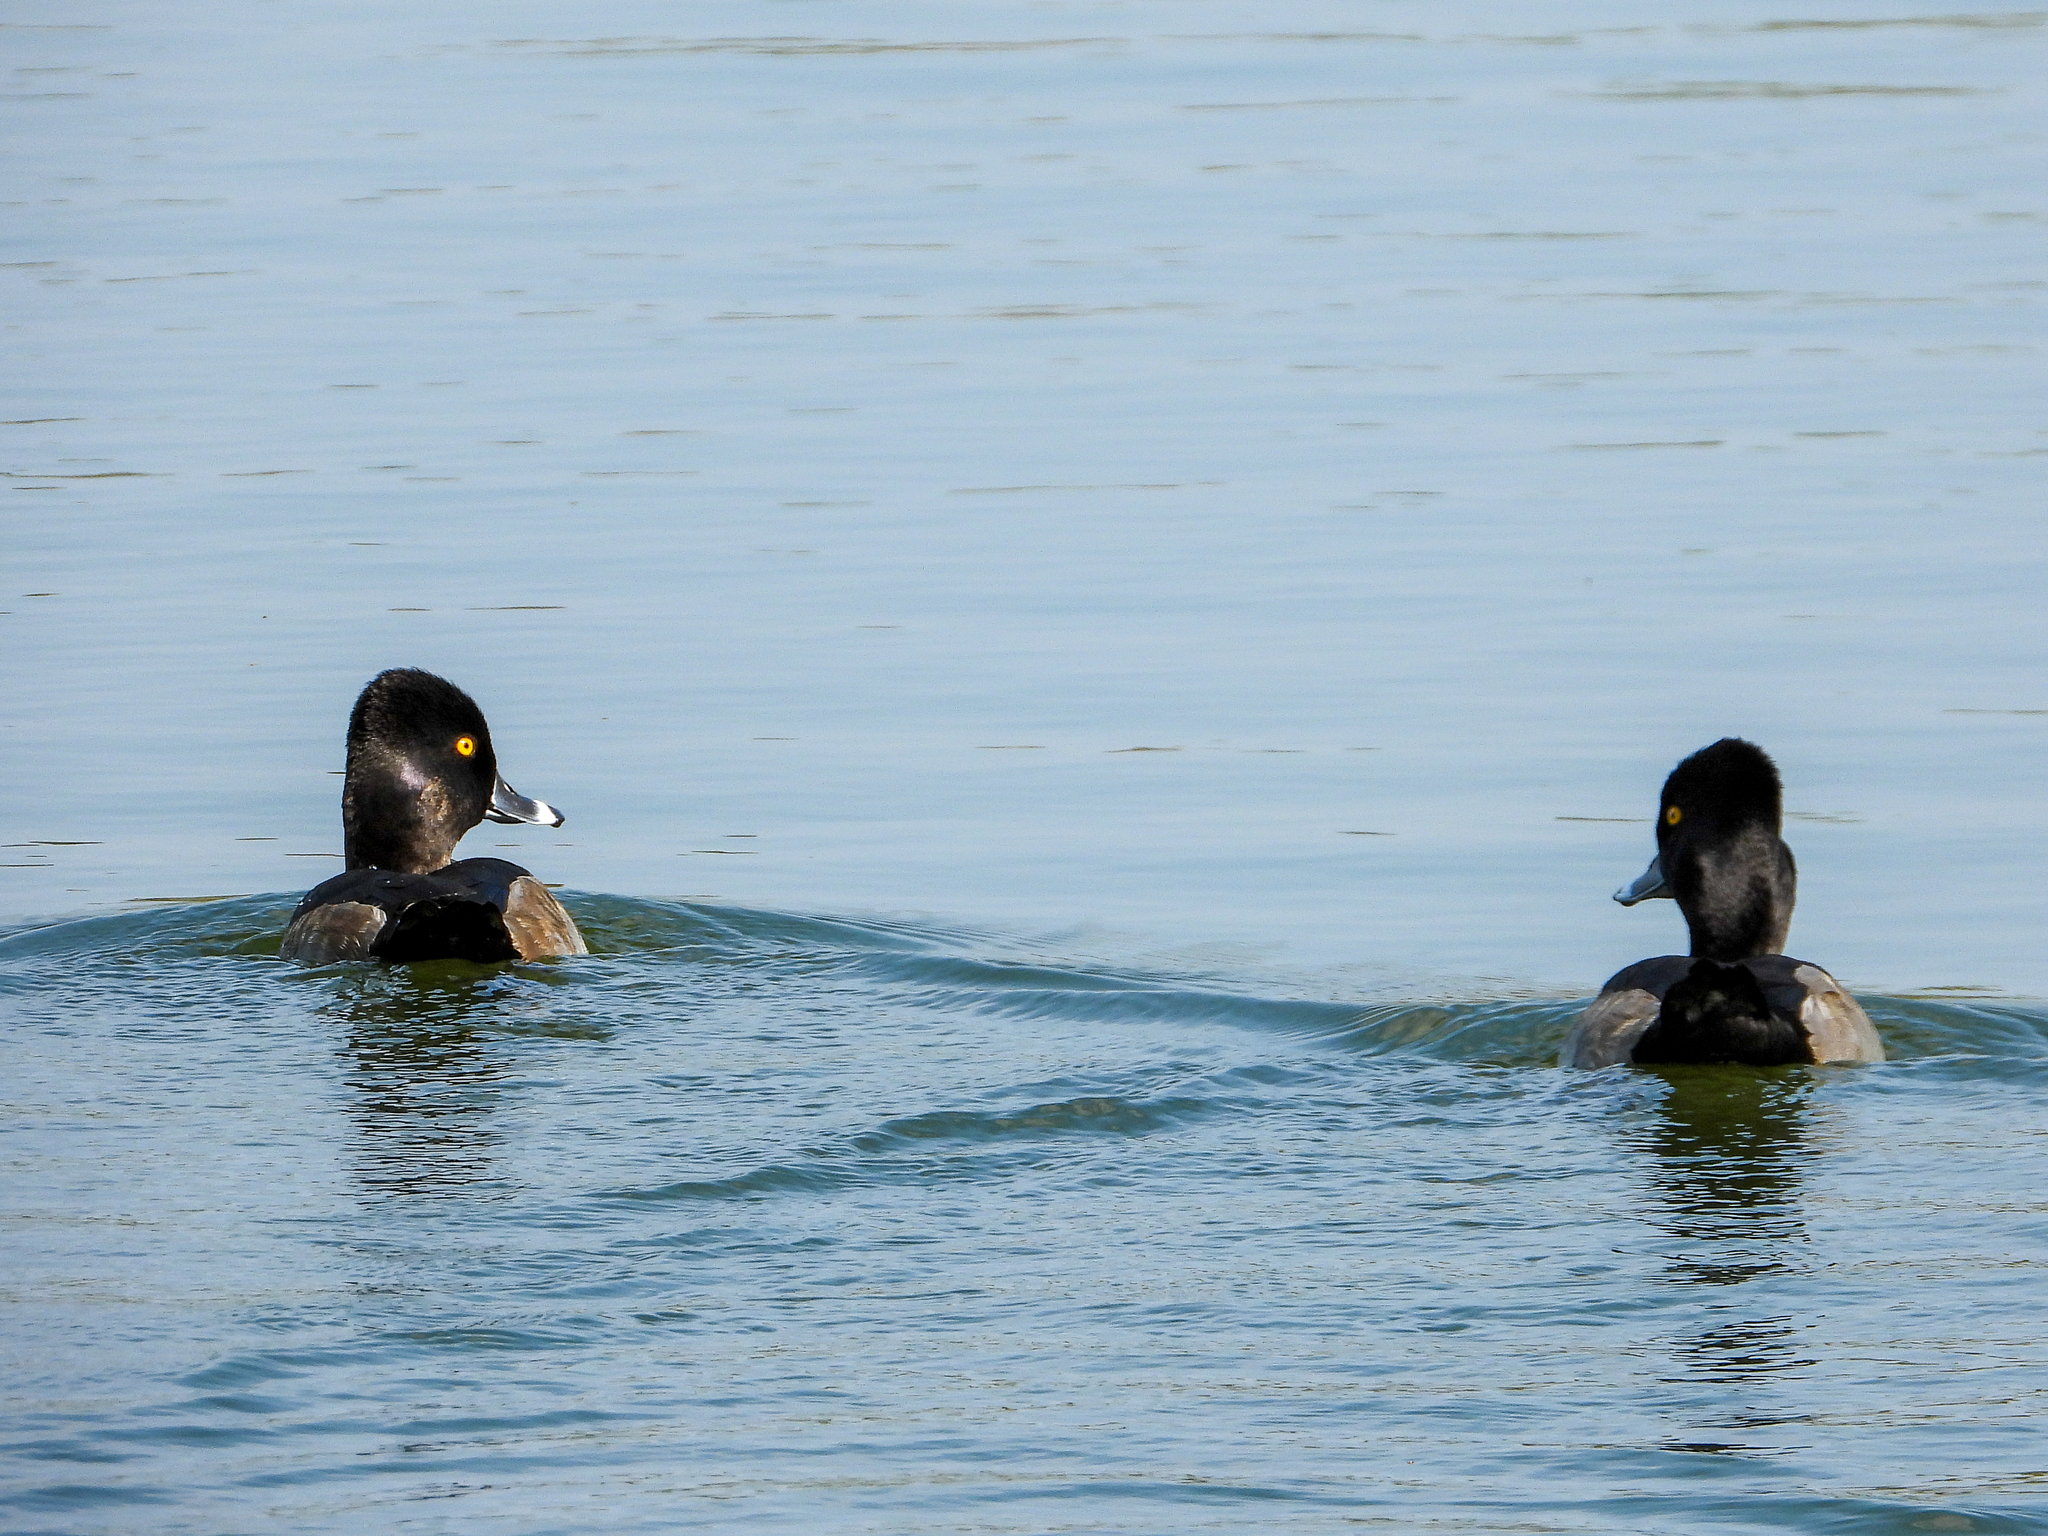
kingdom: Animalia
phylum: Chordata
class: Aves
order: Anseriformes
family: Anatidae
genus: Aythya
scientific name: Aythya collaris
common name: Ring-necked duck
